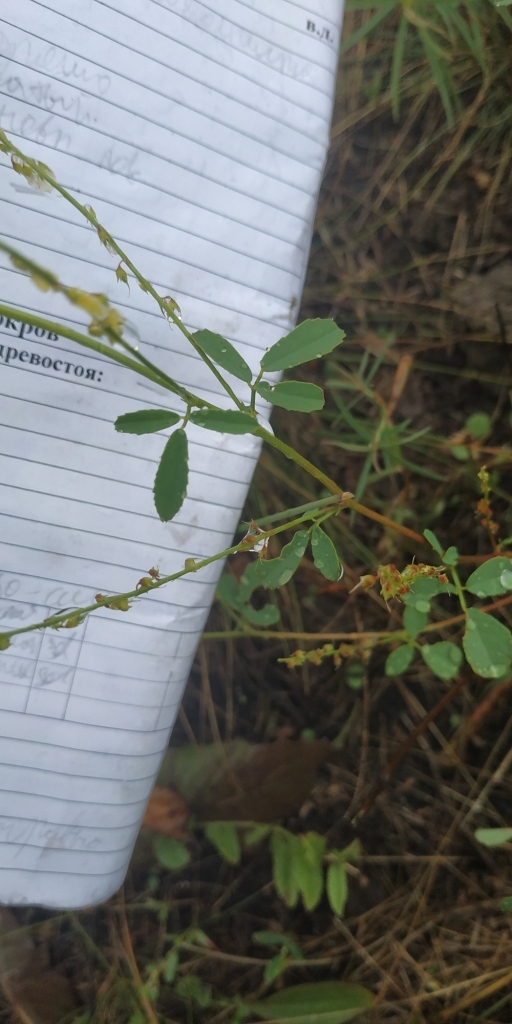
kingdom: Plantae
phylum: Tracheophyta
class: Magnoliopsida
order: Fabales
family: Fabaceae
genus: Melilotus
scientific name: Melilotus officinalis
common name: Sweetclover
